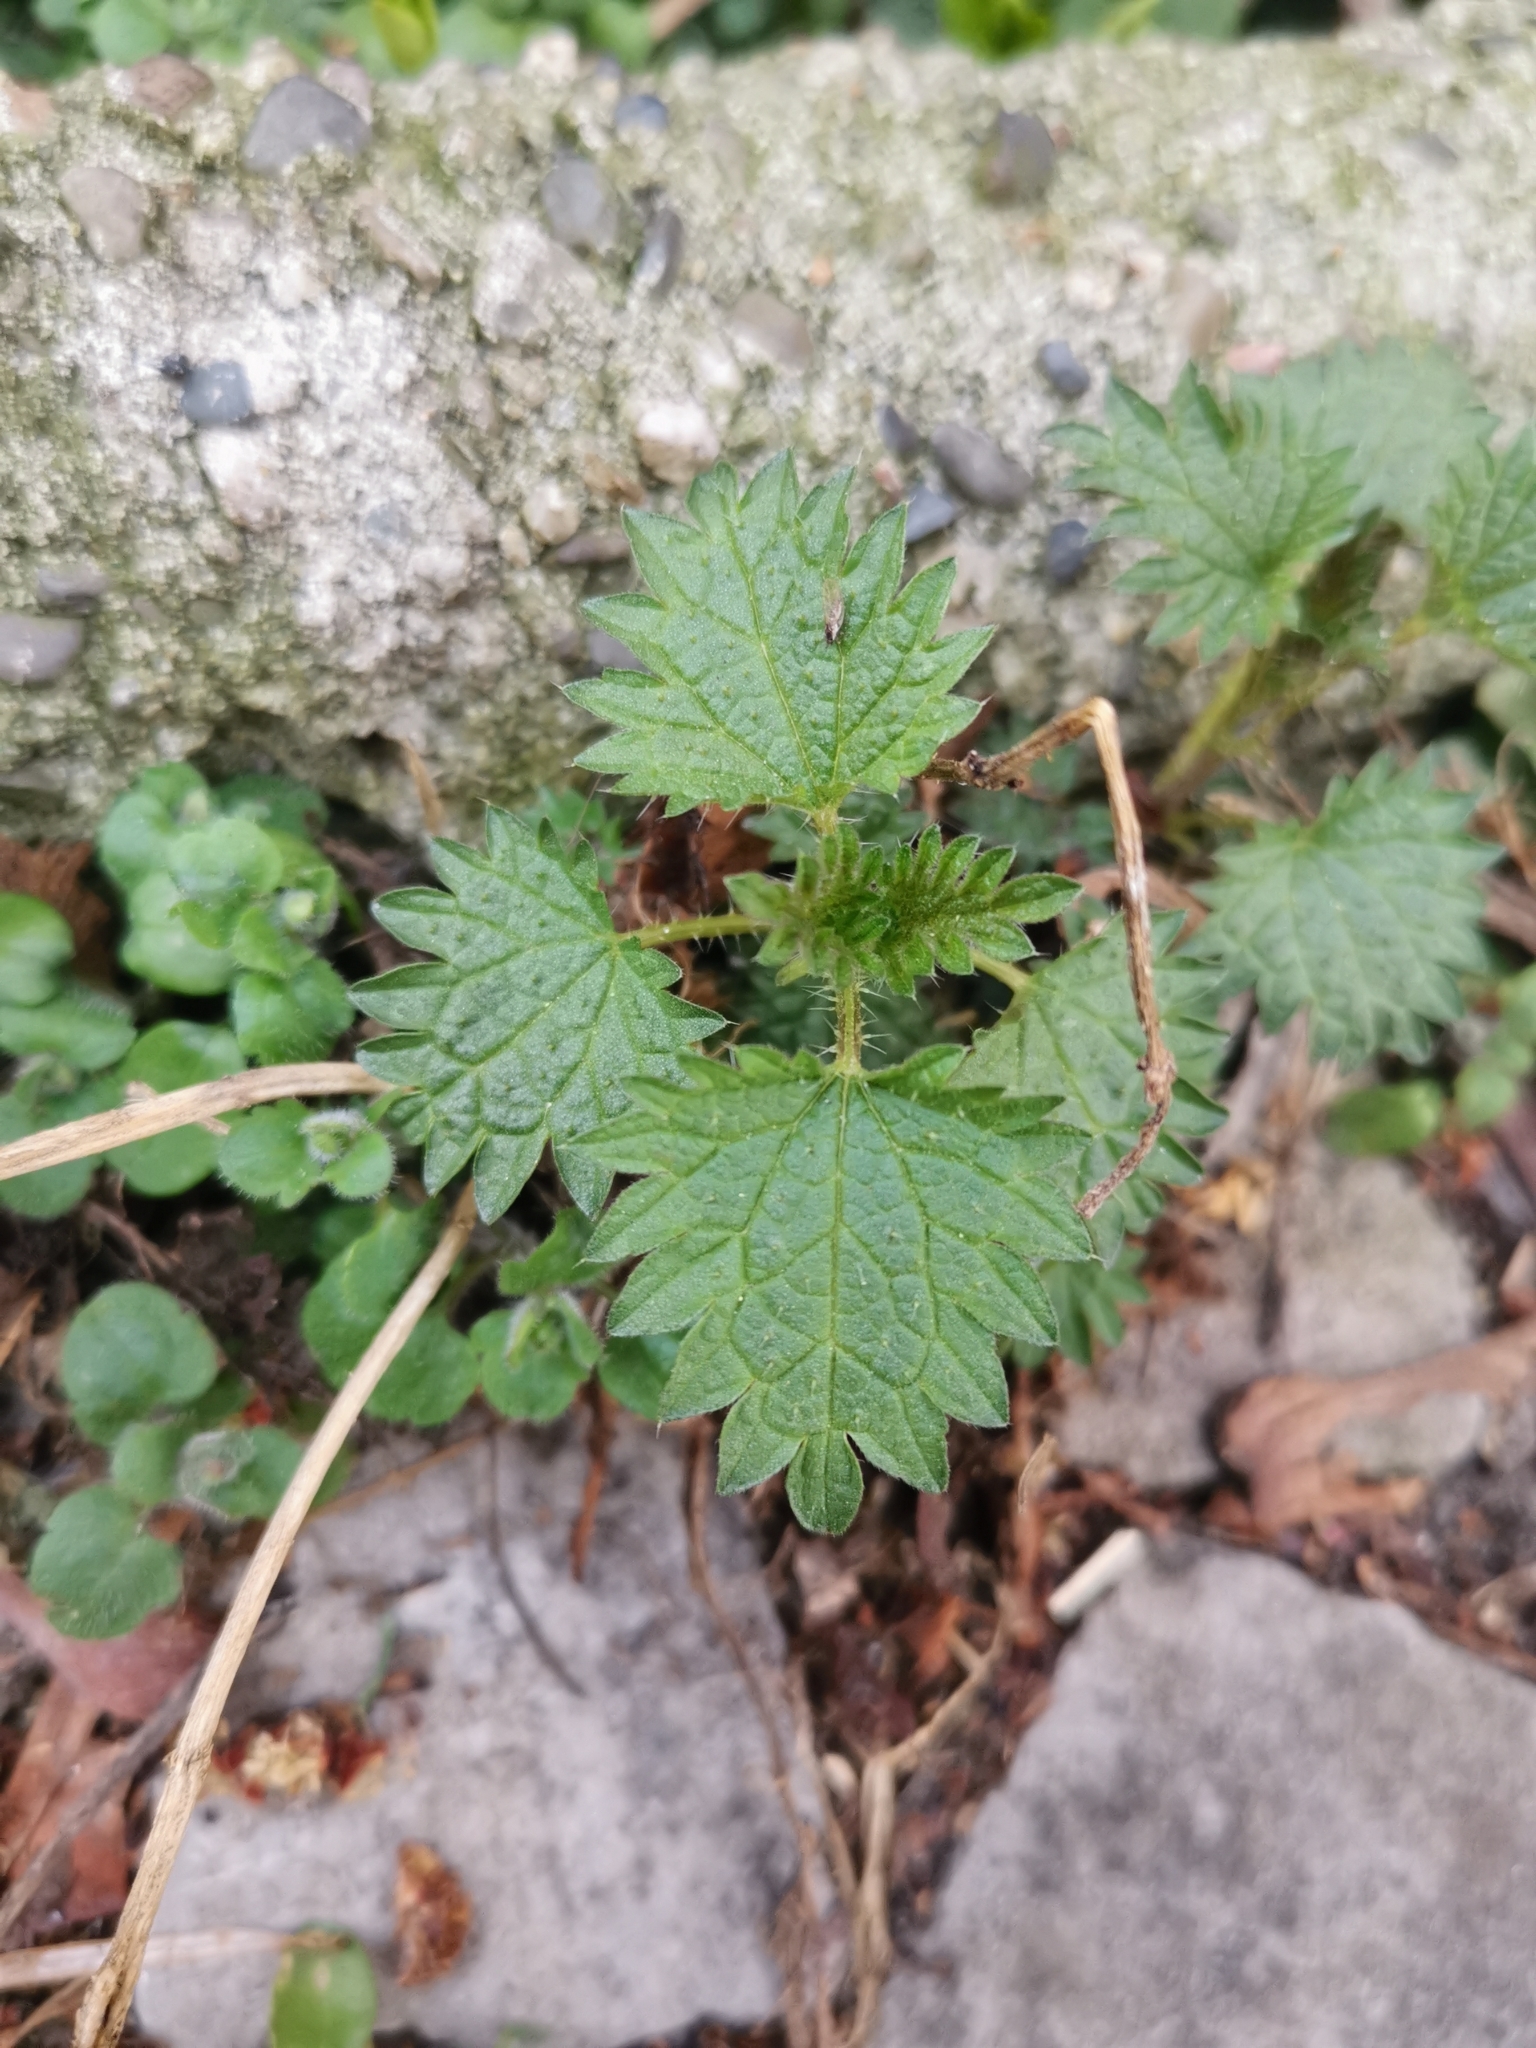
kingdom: Plantae
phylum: Tracheophyta
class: Magnoliopsida
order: Rosales
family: Urticaceae
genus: Urtica
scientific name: Urtica dioica
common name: Common nettle
